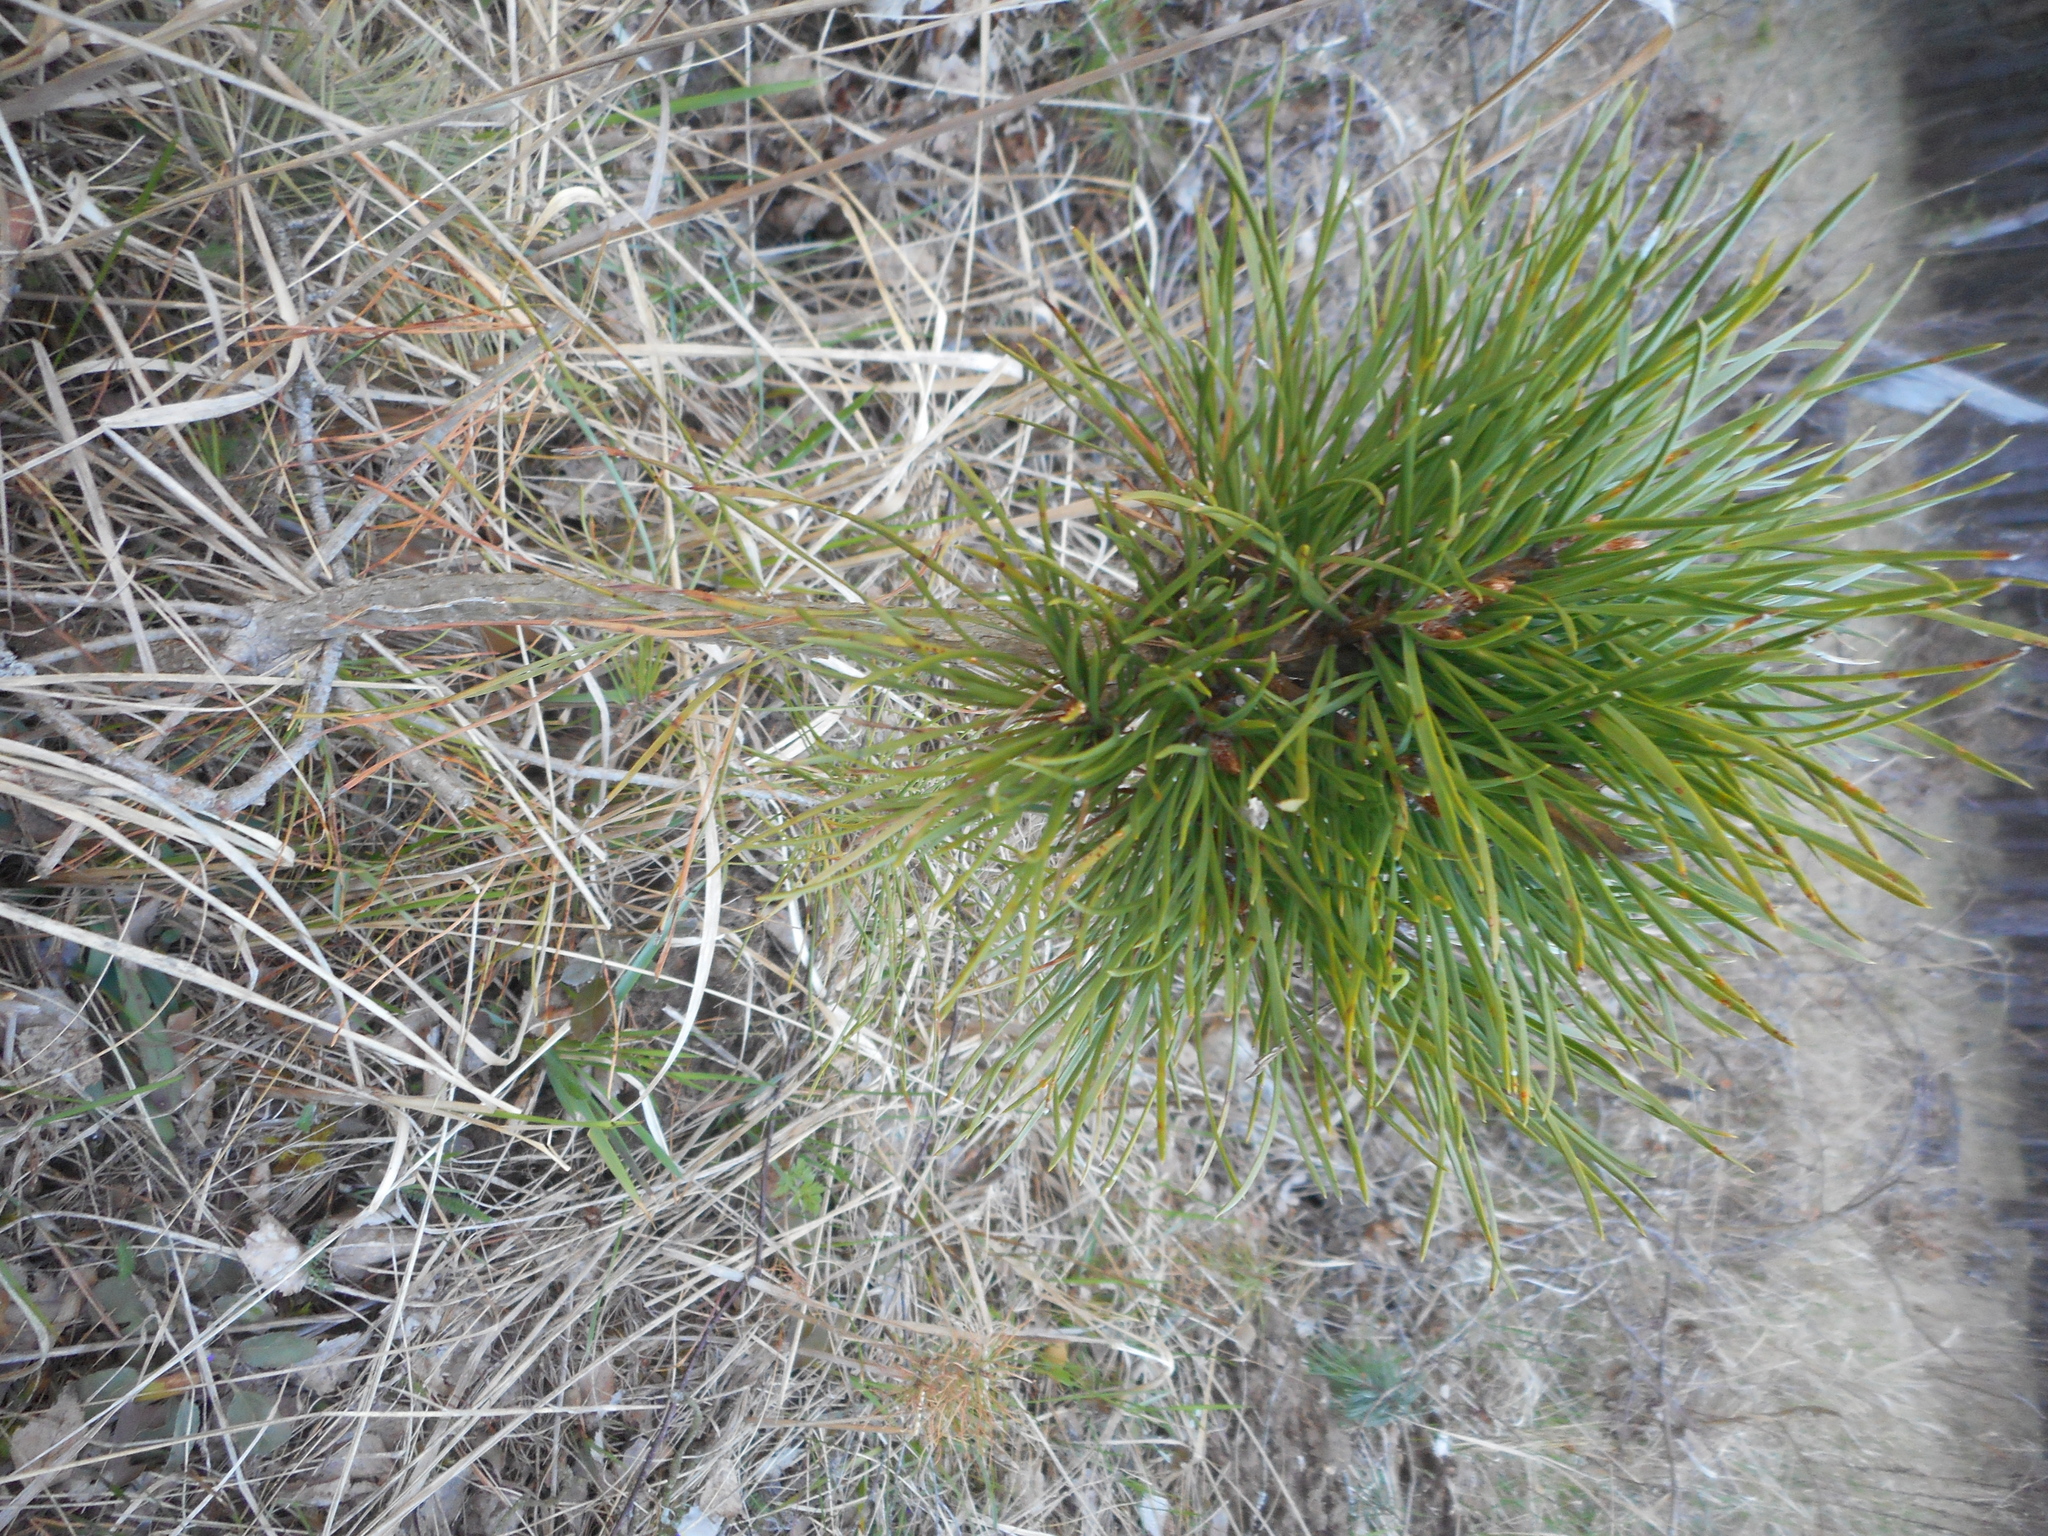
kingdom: Plantae
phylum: Tracheophyta
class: Pinopsida
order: Pinales
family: Pinaceae
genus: Pinus
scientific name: Pinus sylvestris
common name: Scots pine
